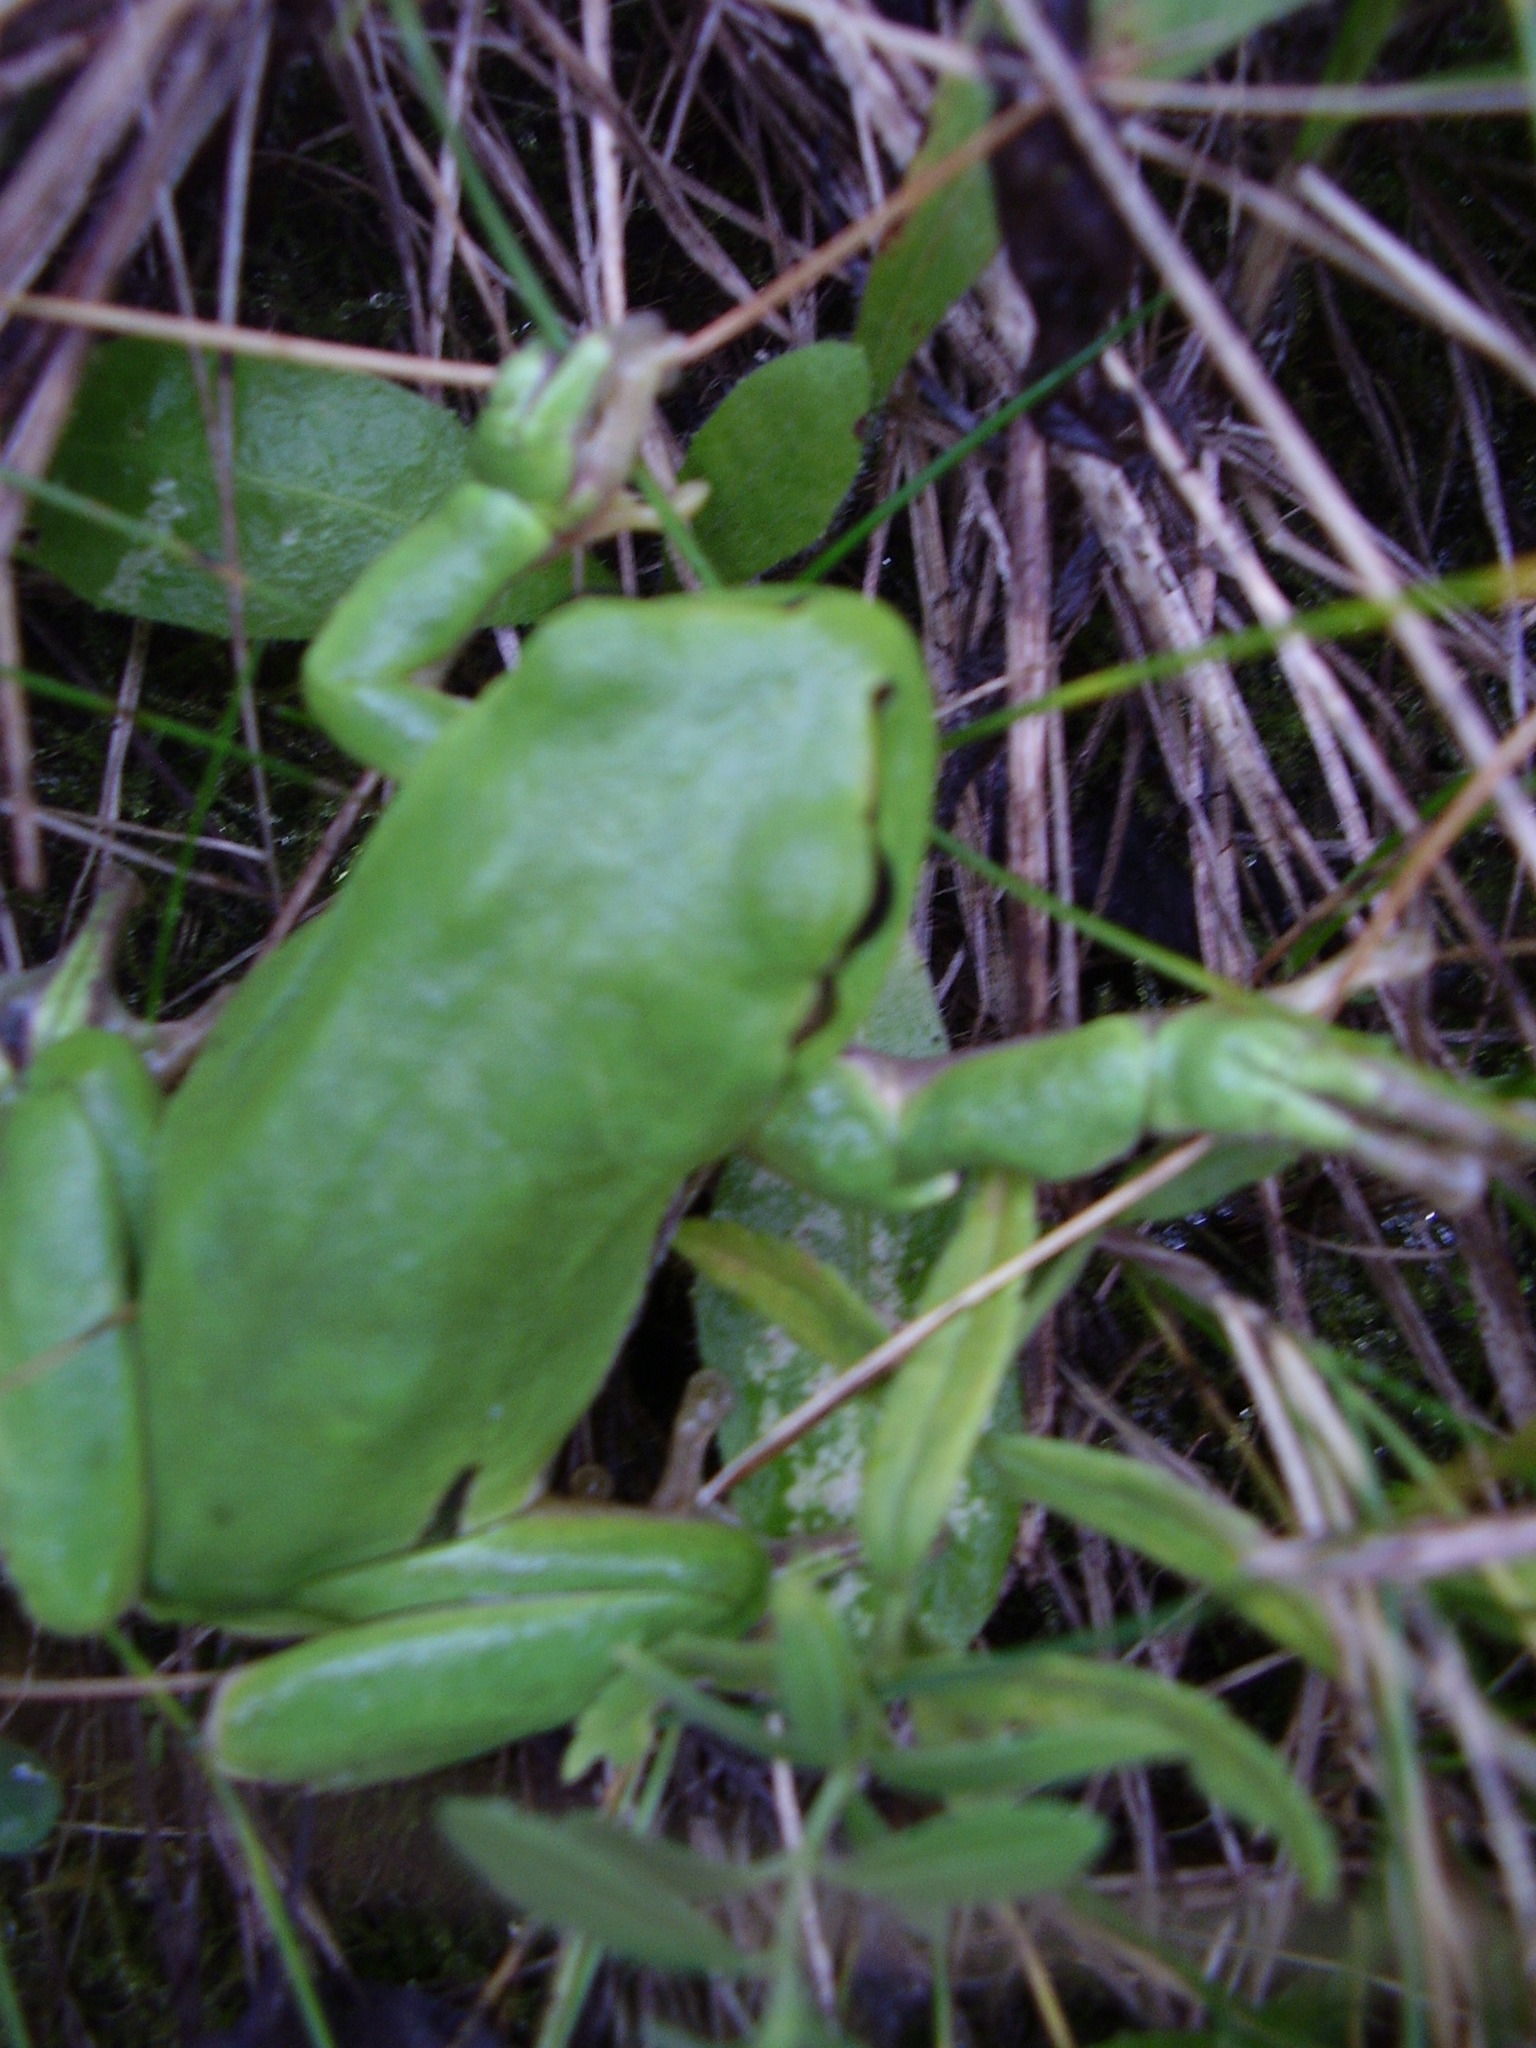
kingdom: Animalia
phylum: Chordata
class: Amphibia
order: Anura
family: Hylidae
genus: Hyla
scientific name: Hyla orientalis
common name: Caucasian treefrog
